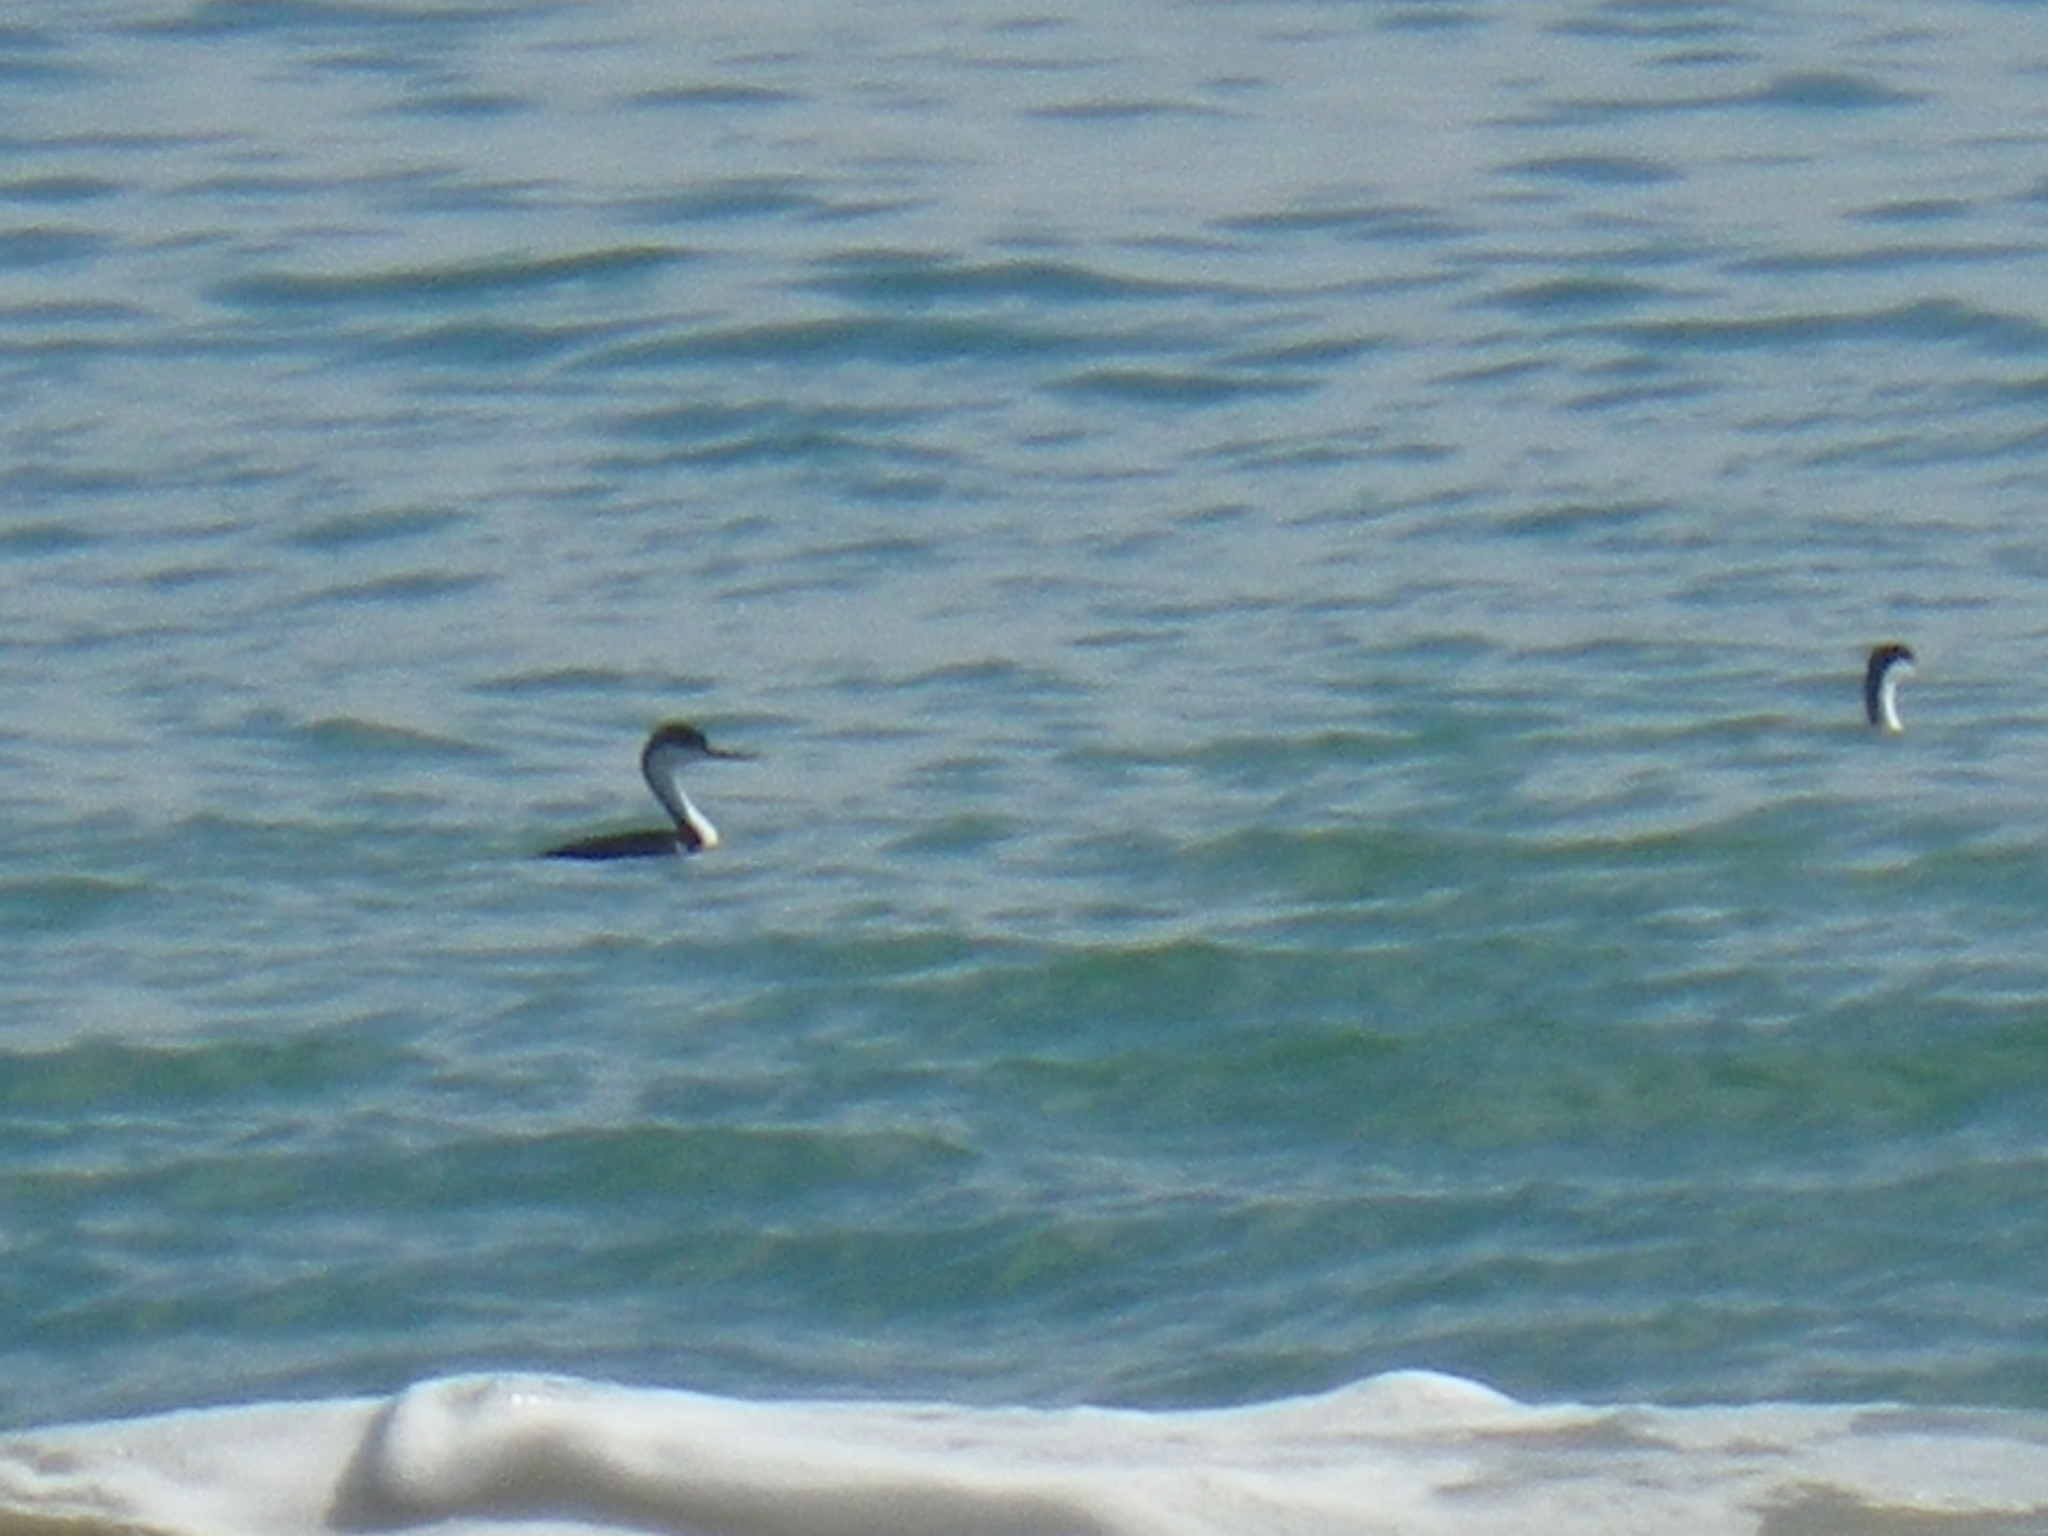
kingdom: Animalia
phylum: Chordata
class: Aves
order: Podicipediformes
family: Podicipedidae
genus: Aechmophorus
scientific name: Aechmophorus occidentalis
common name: Western grebe
